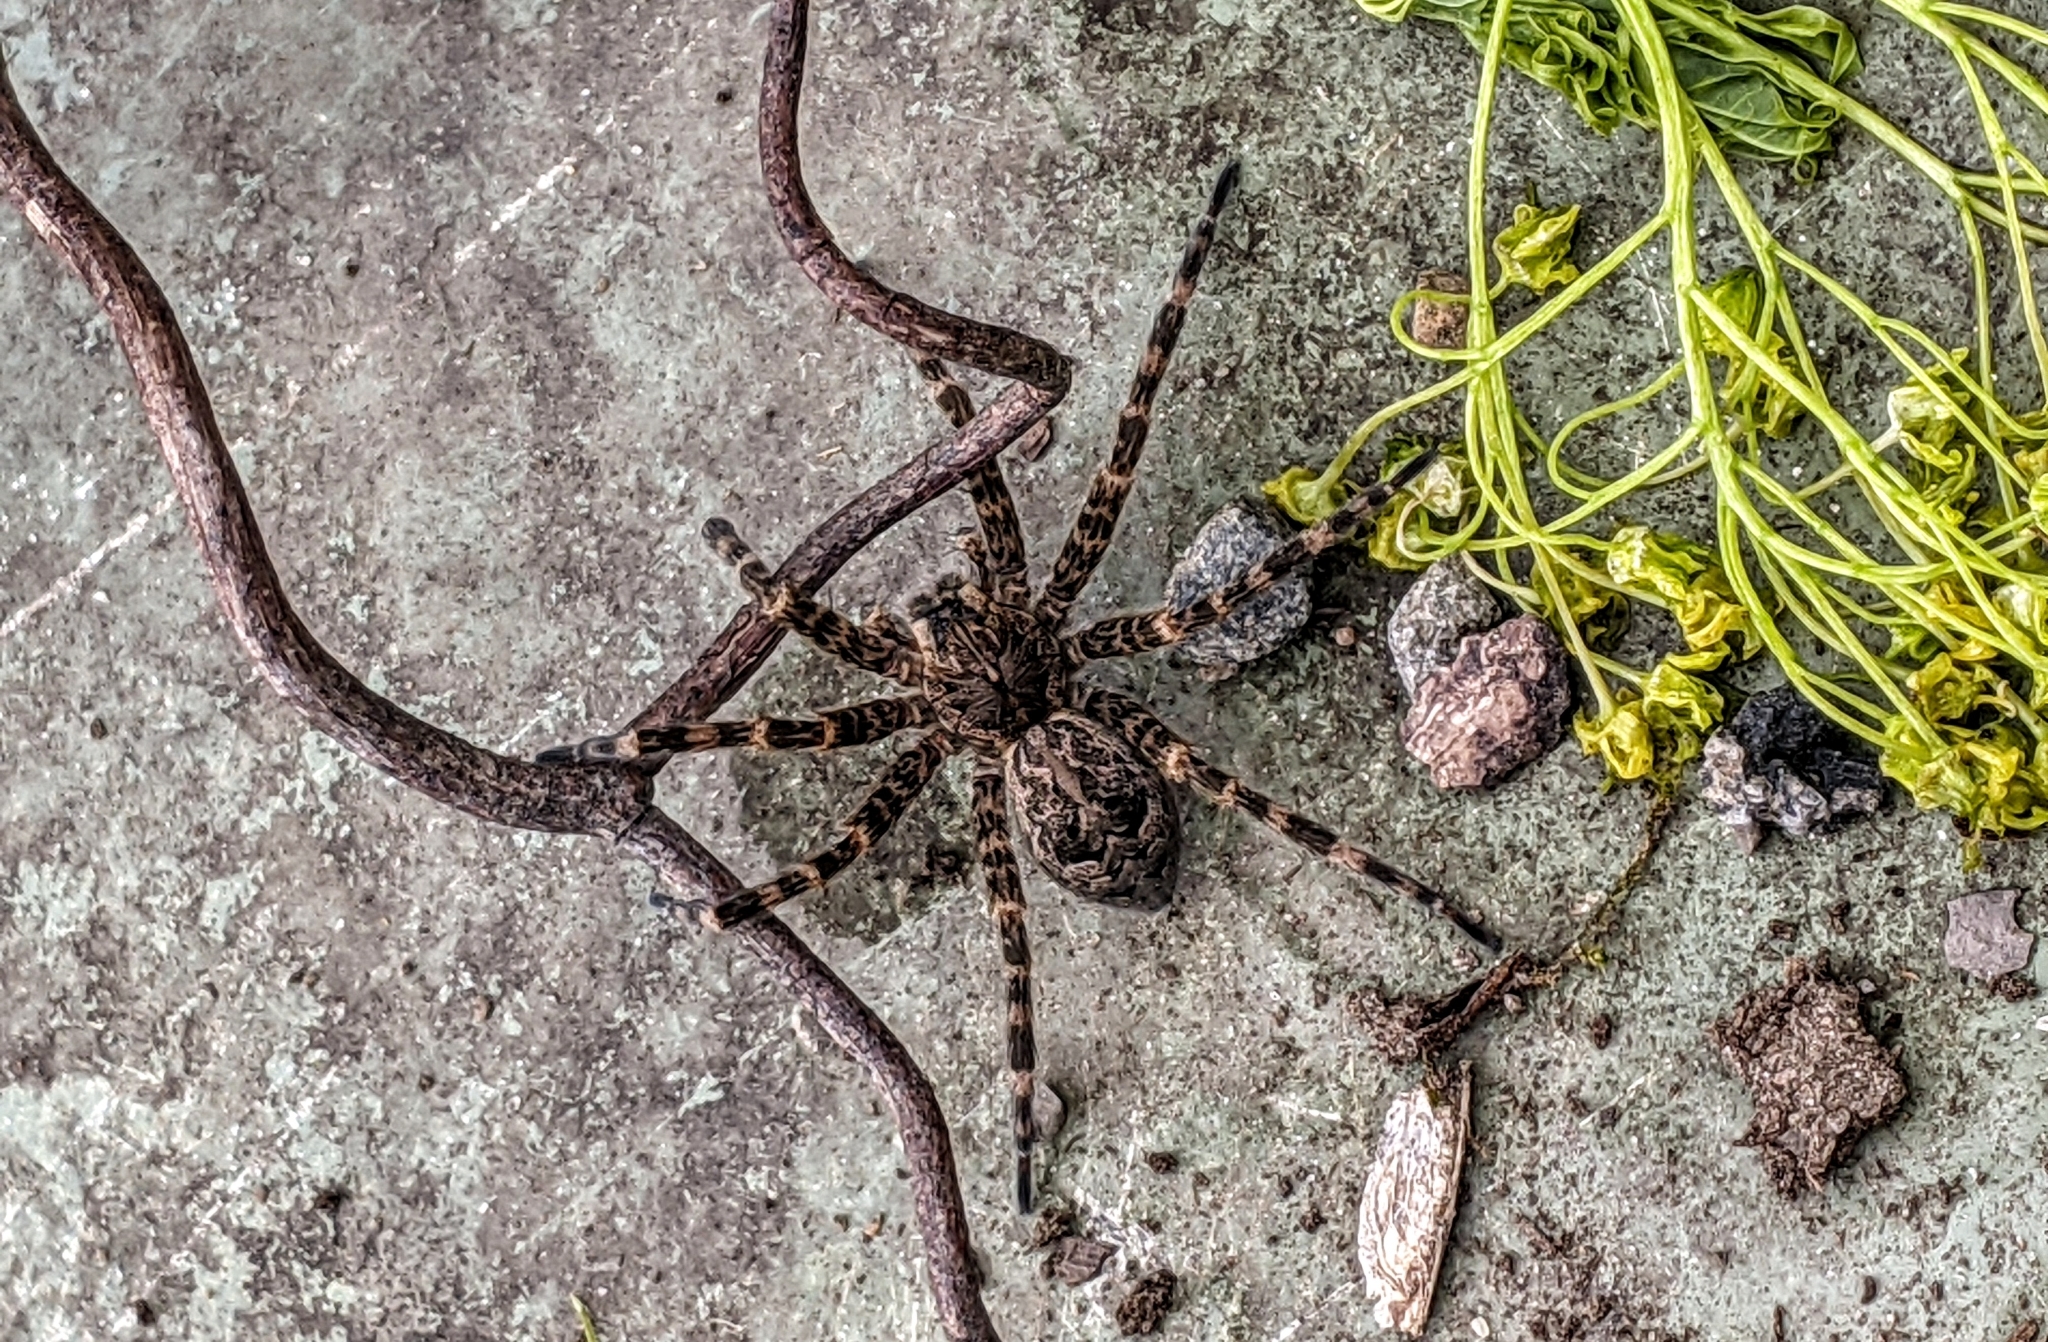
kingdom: Animalia
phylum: Arthropoda
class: Arachnida
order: Araneae
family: Pisauridae
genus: Dolomedes
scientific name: Dolomedes tenebrosus
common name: Dark fishing spider
